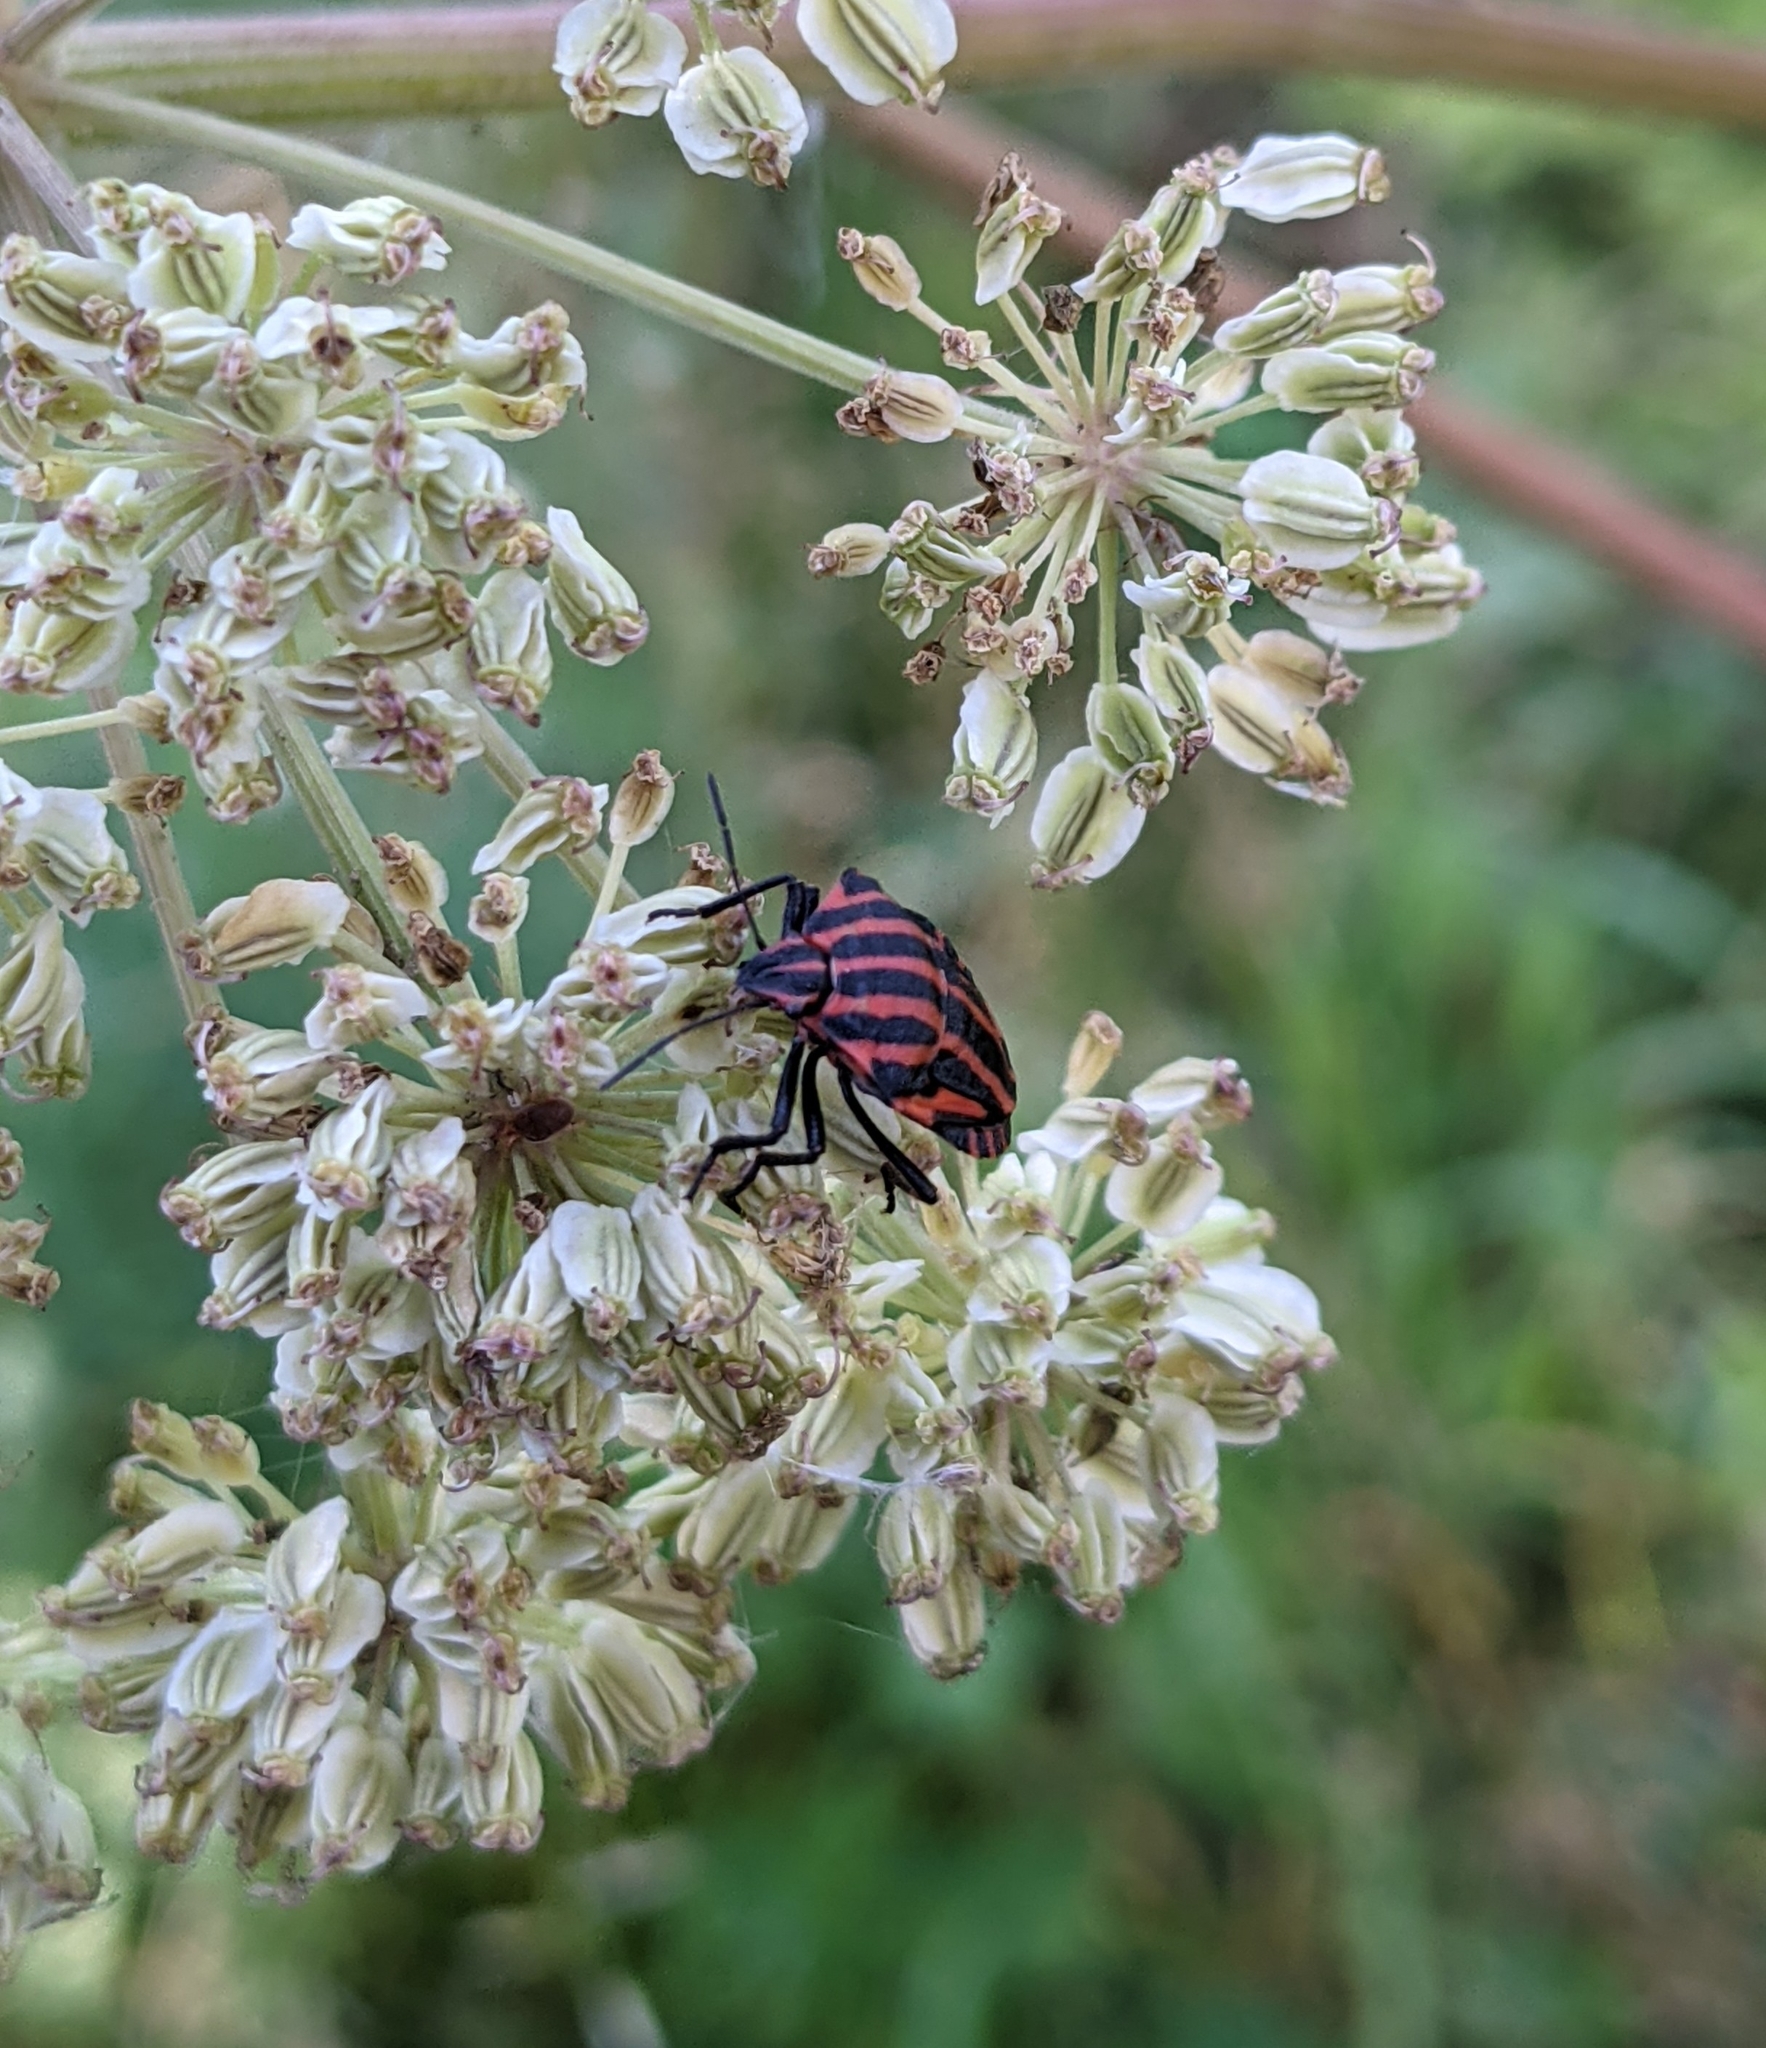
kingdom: Animalia
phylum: Arthropoda
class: Insecta
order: Hemiptera
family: Pentatomidae
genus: Graphosoma
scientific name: Graphosoma italicum
